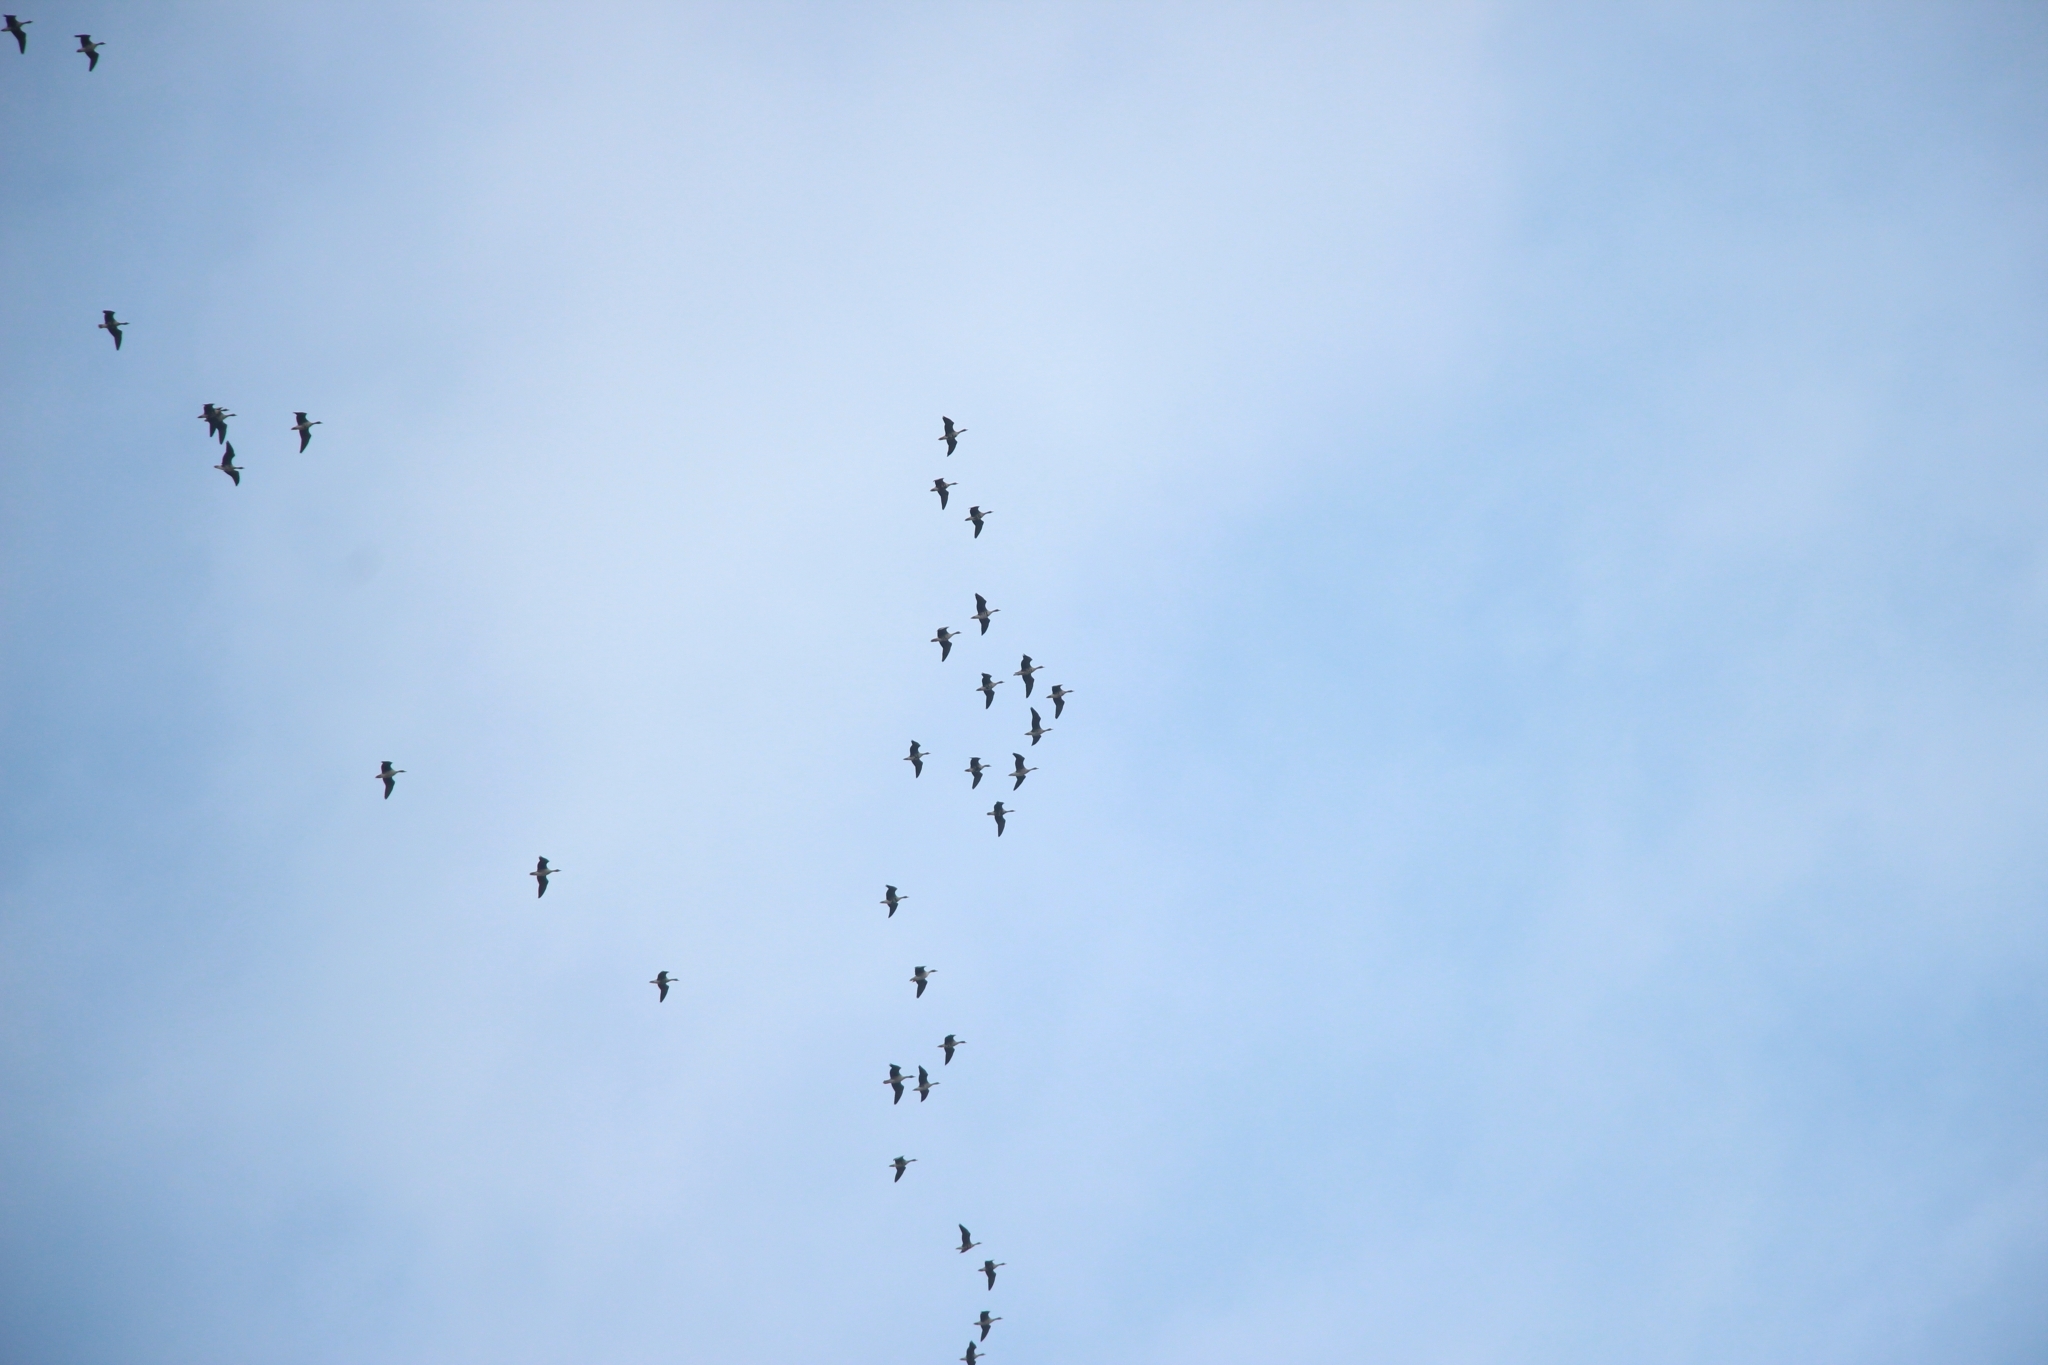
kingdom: Animalia
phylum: Chordata
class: Aves
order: Anseriformes
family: Anatidae
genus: Anser
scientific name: Anser albifrons
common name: Greater white-fronted goose
